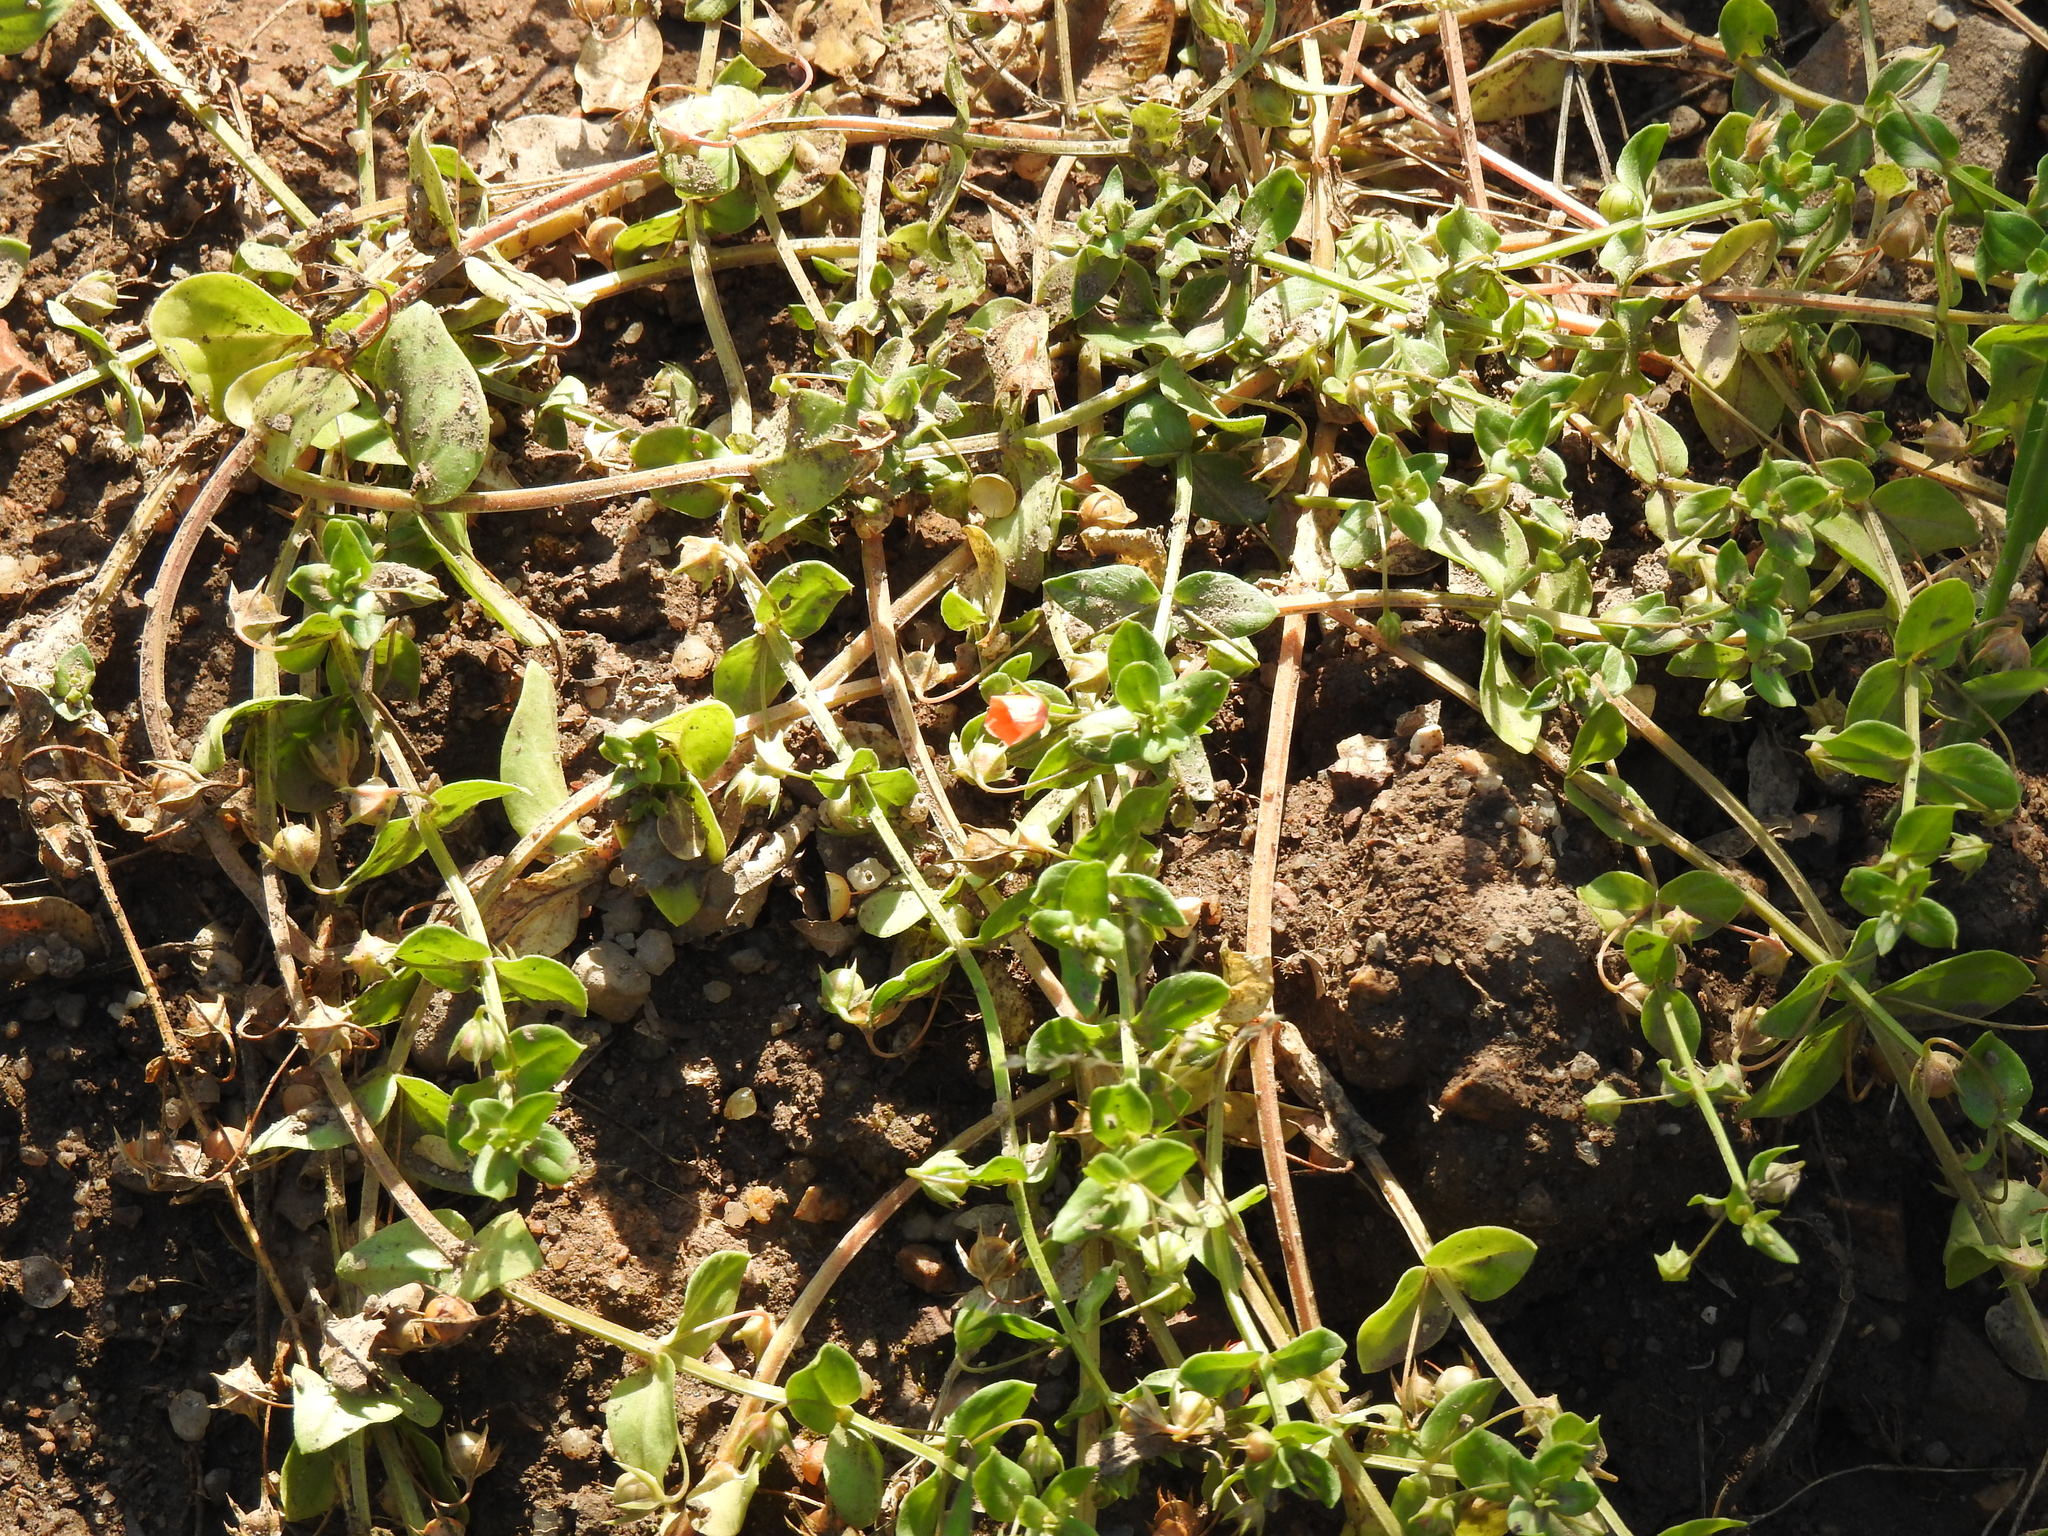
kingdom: Plantae
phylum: Tracheophyta
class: Magnoliopsida
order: Ericales
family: Primulaceae
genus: Lysimachia
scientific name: Lysimachia arvensis
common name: Scarlet pimpernel
